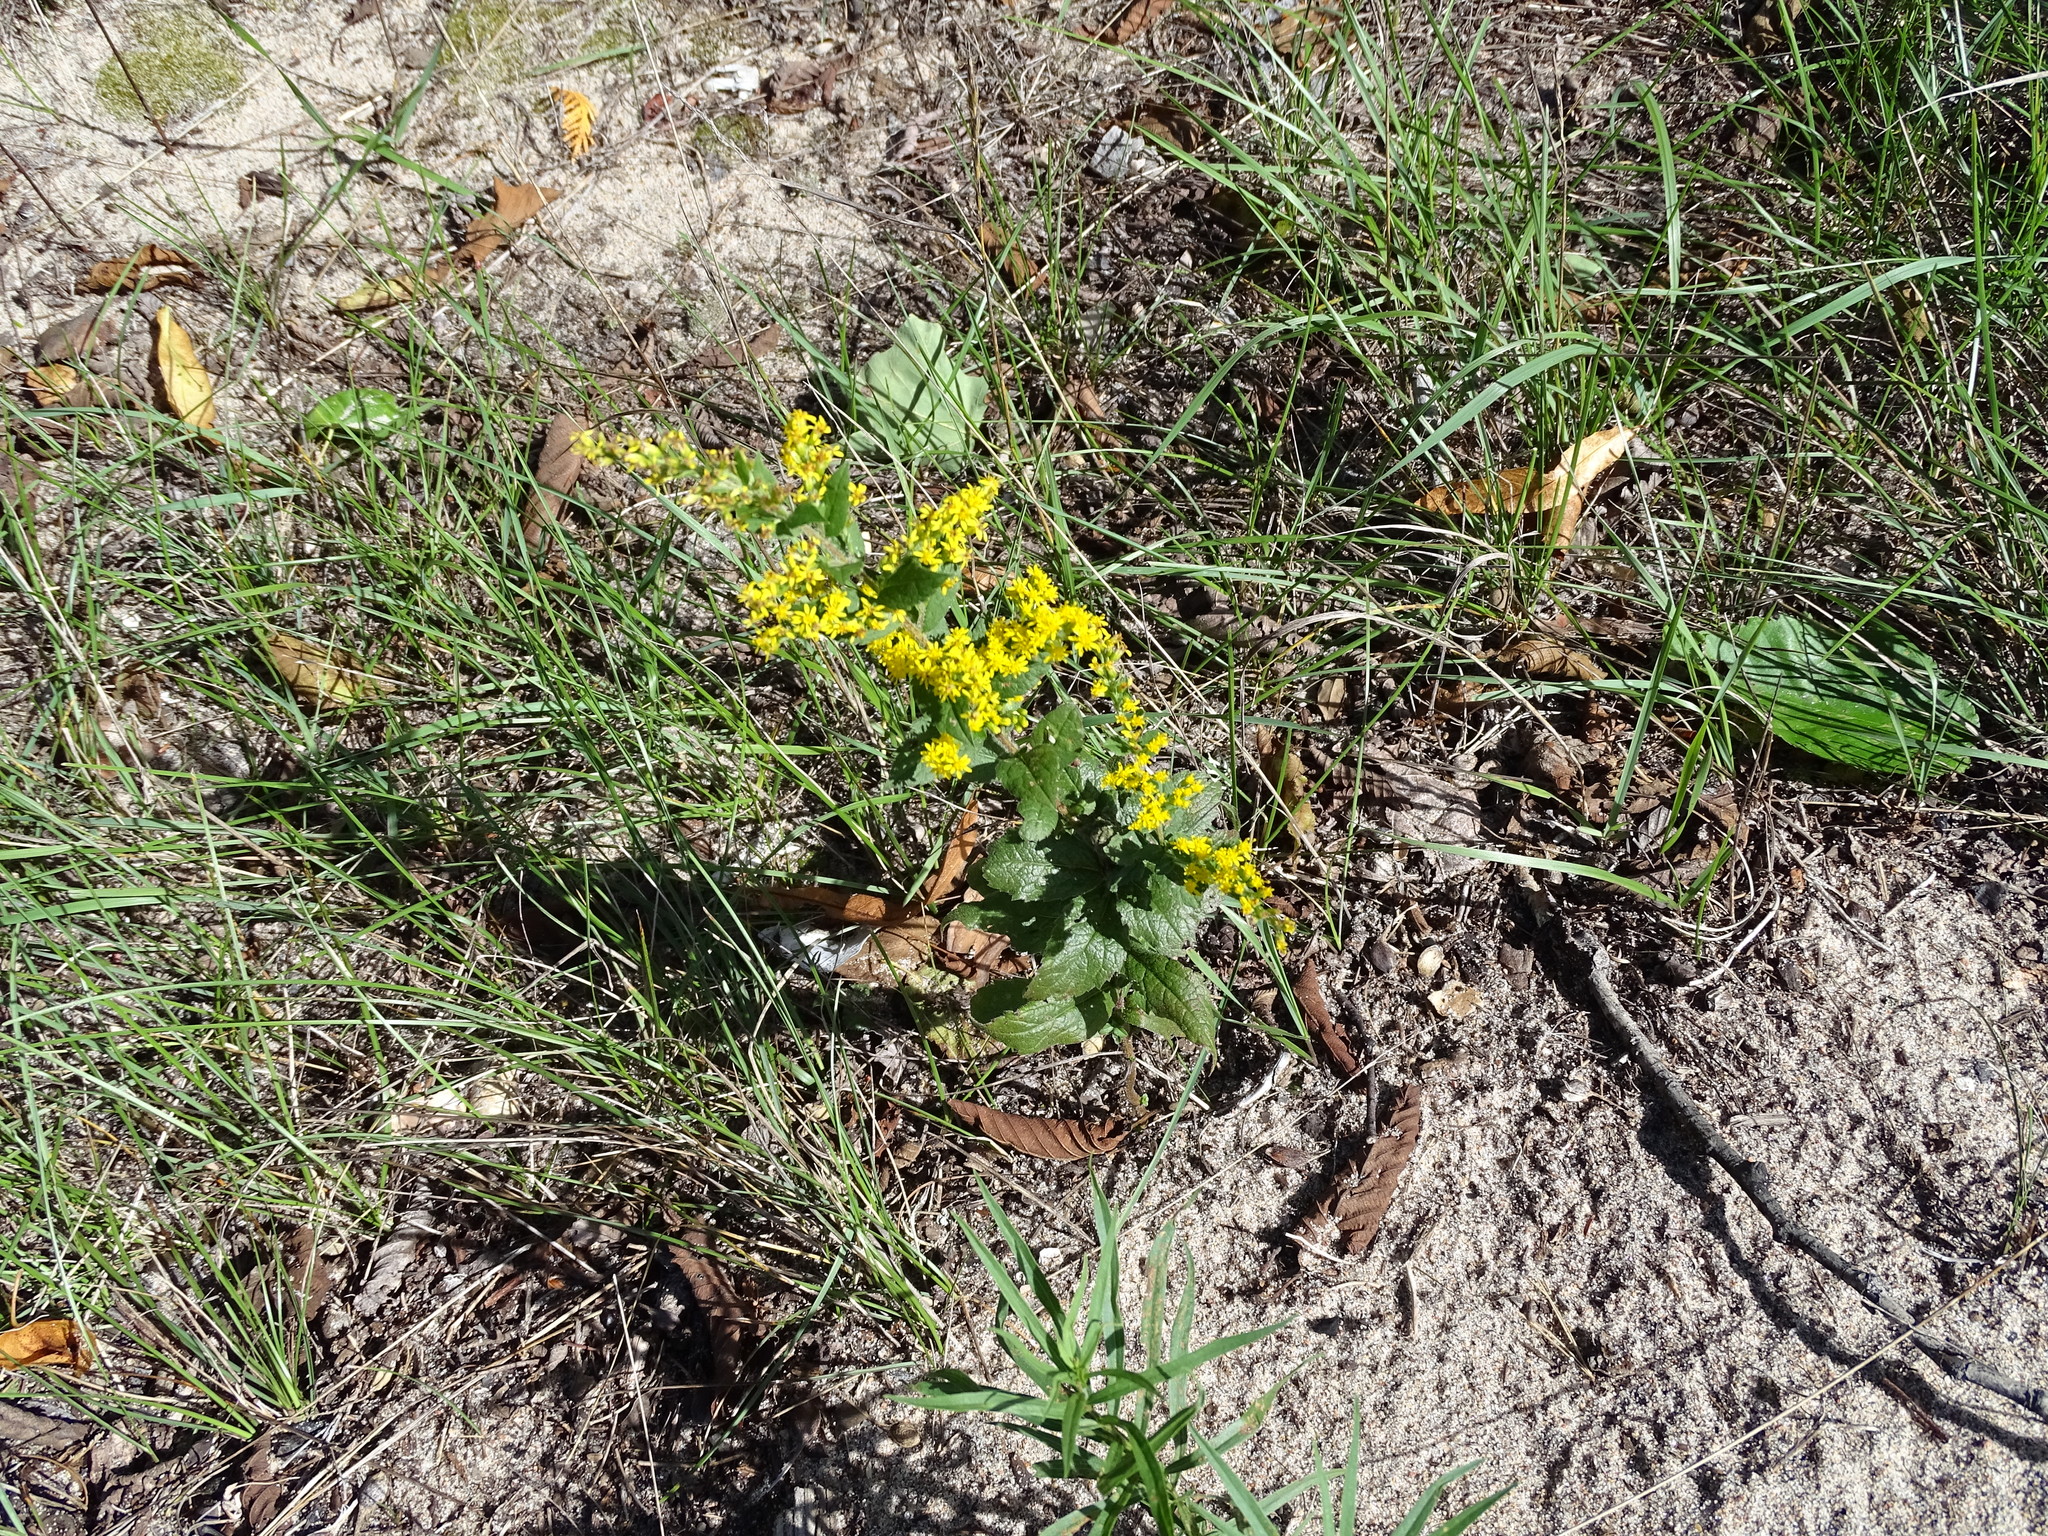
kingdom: Plantae
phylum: Tracheophyta
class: Magnoliopsida
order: Asterales
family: Asteraceae
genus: Solidago
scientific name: Solidago rugosa
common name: Rough-stemmed goldenrod
